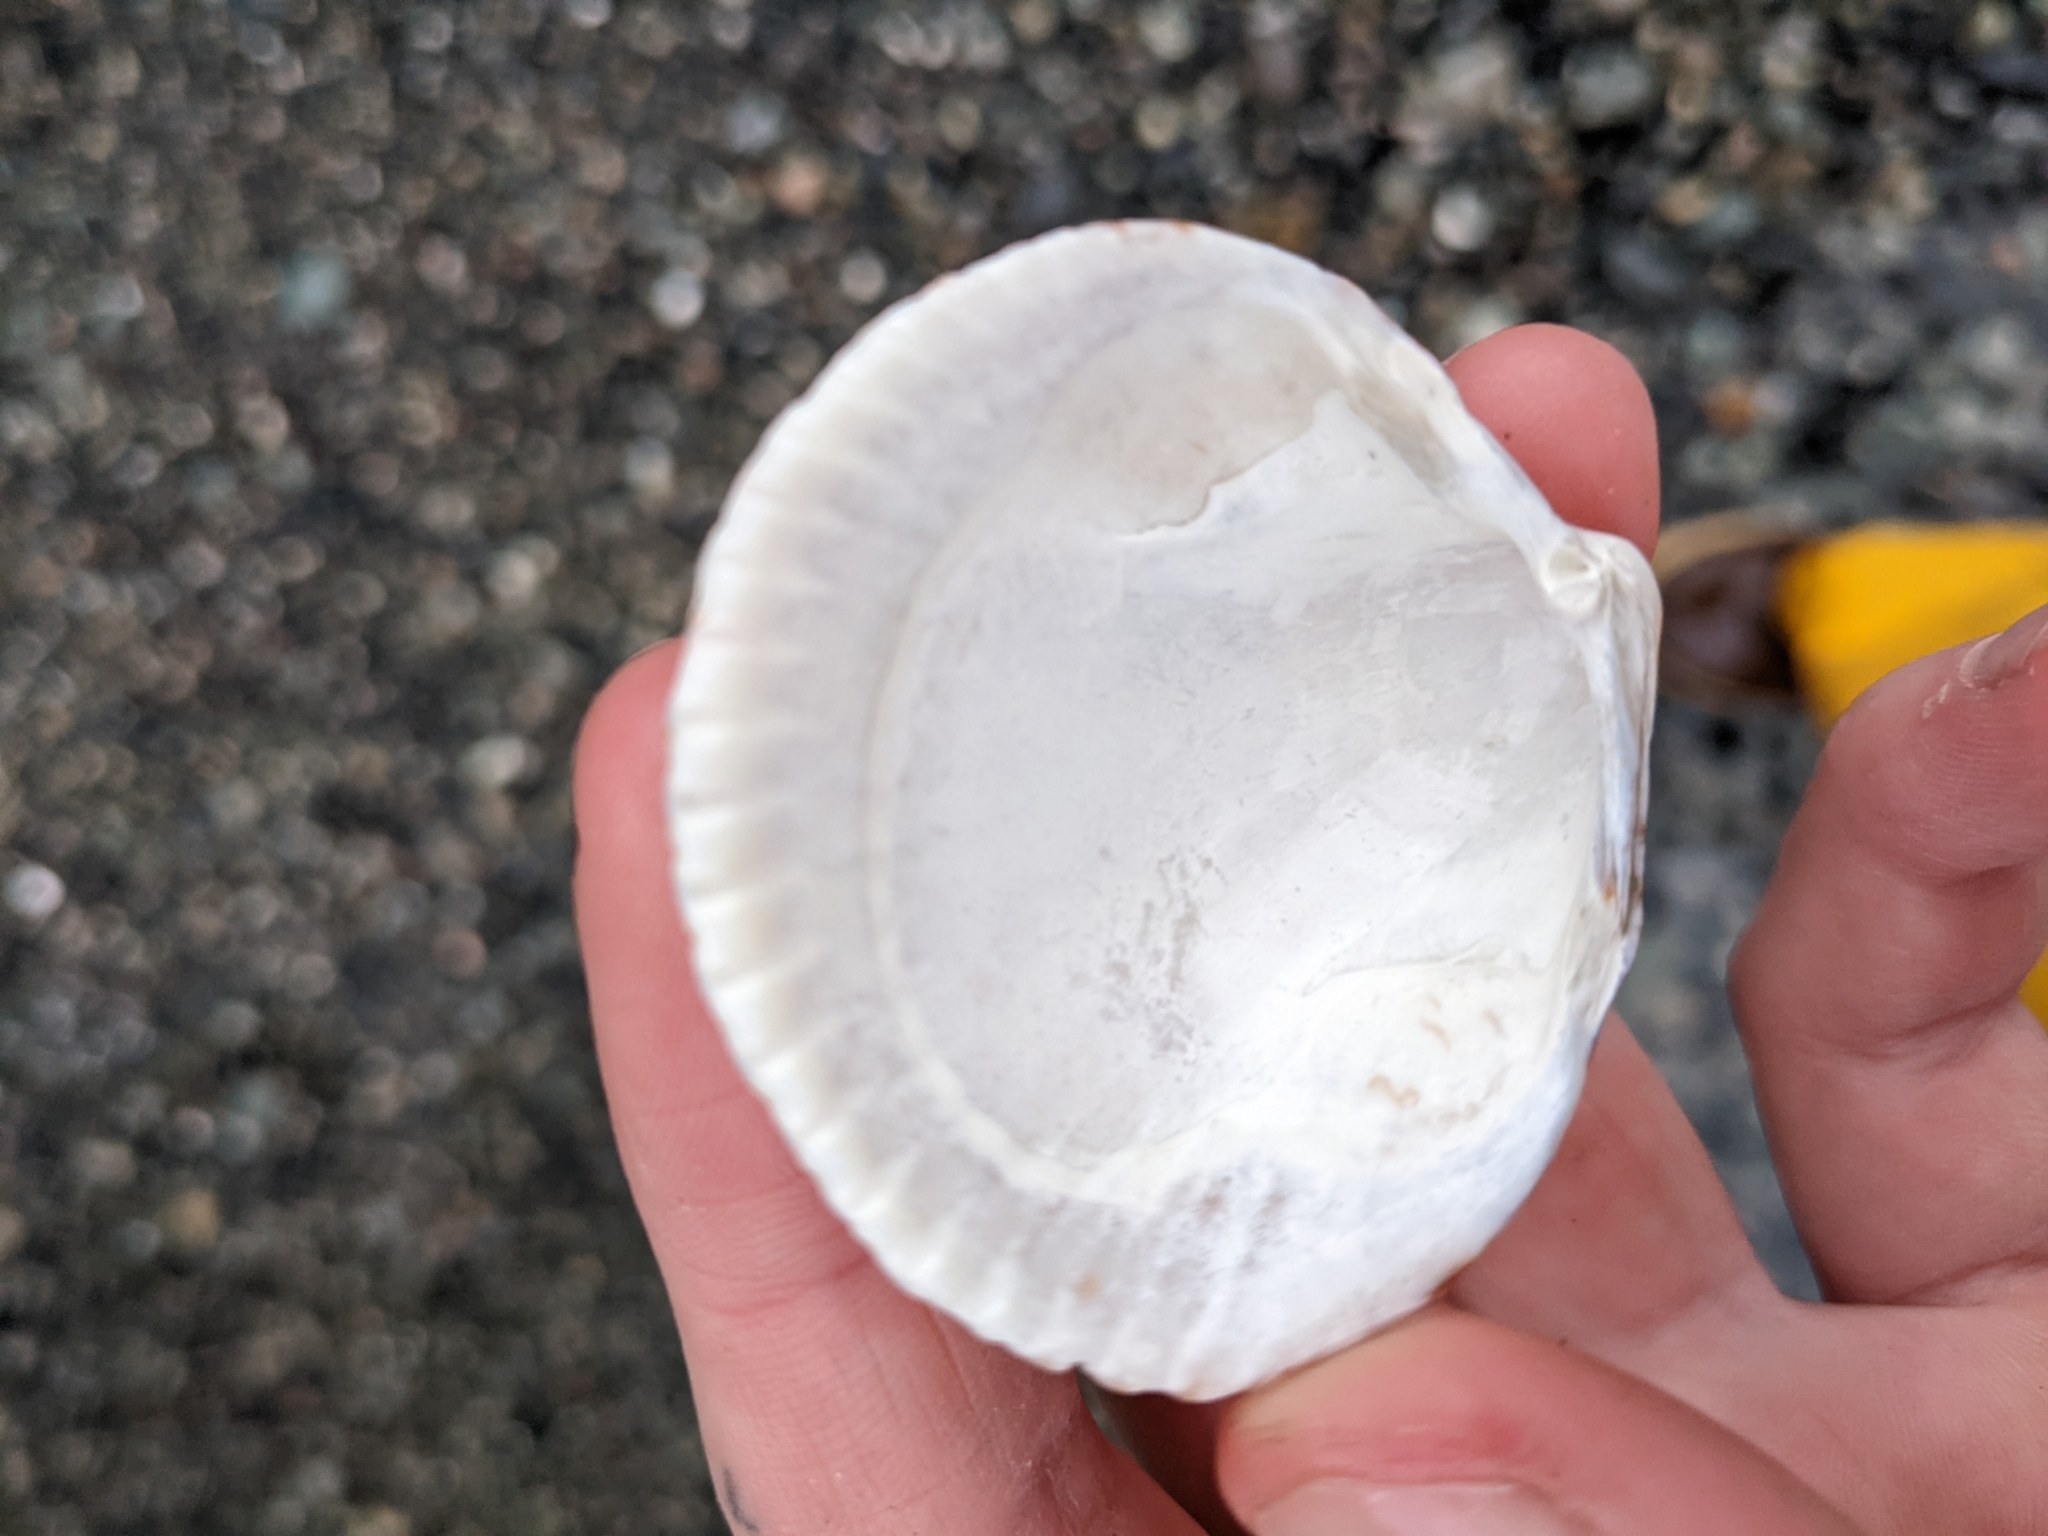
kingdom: Animalia
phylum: Mollusca
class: Bivalvia
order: Cardiida
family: Cardiidae
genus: Clinocardium
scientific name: Clinocardium nuttallii
